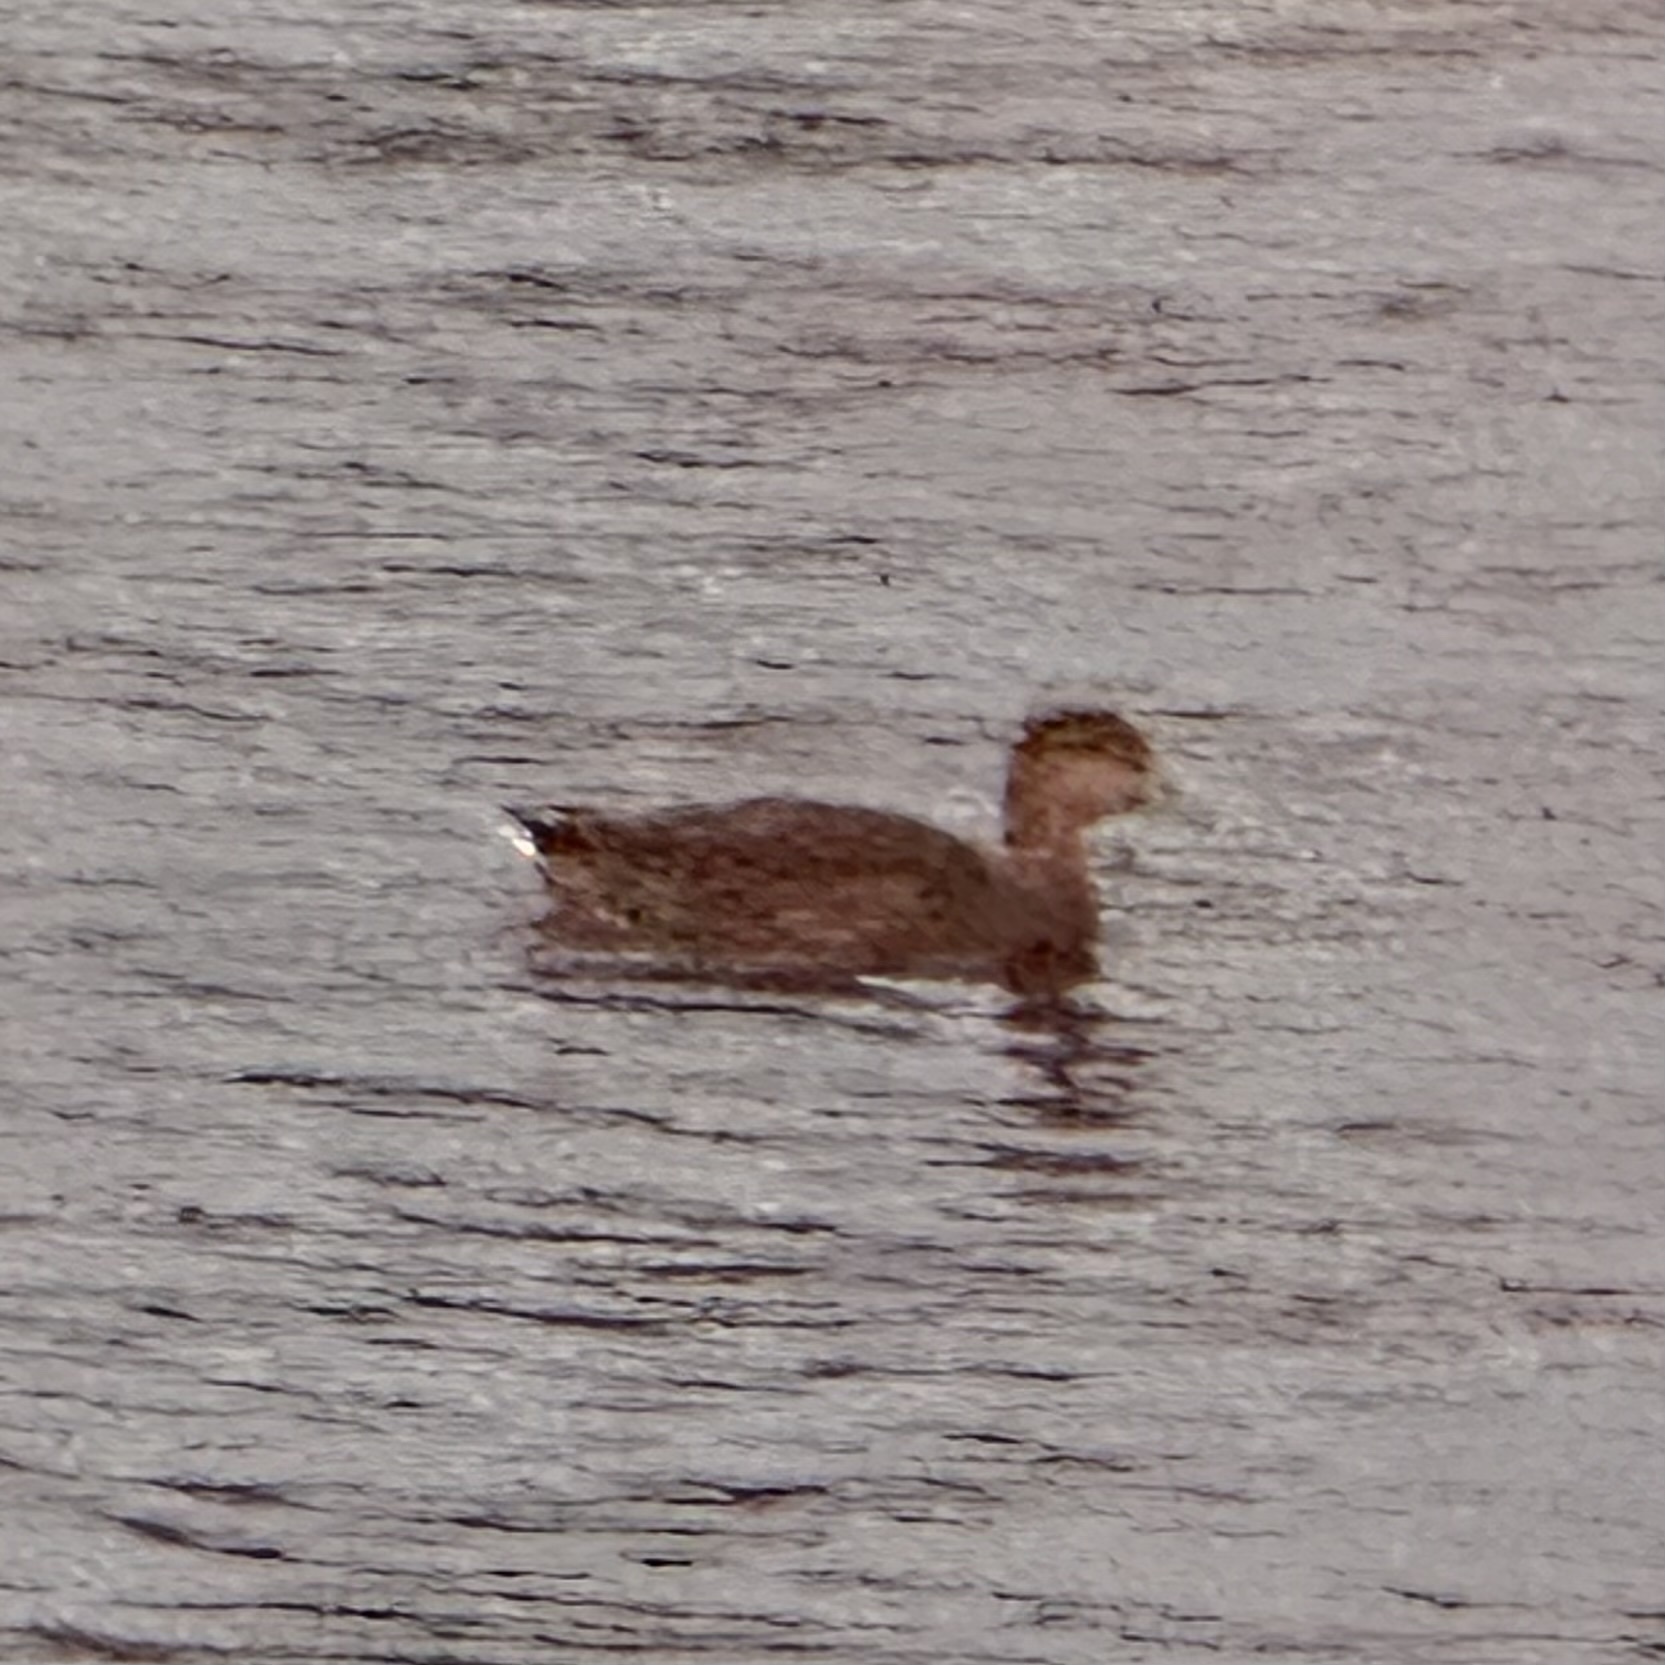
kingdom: Animalia
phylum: Chordata
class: Aves
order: Anseriformes
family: Anatidae
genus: Anas
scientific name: Anas platyrhynchos
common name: Mallard
